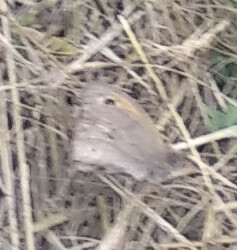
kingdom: Animalia
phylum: Arthropoda
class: Insecta
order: Lepidoptera
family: Nymphalidae
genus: Maniola
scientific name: Maniola jurtina
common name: Meadow brown
